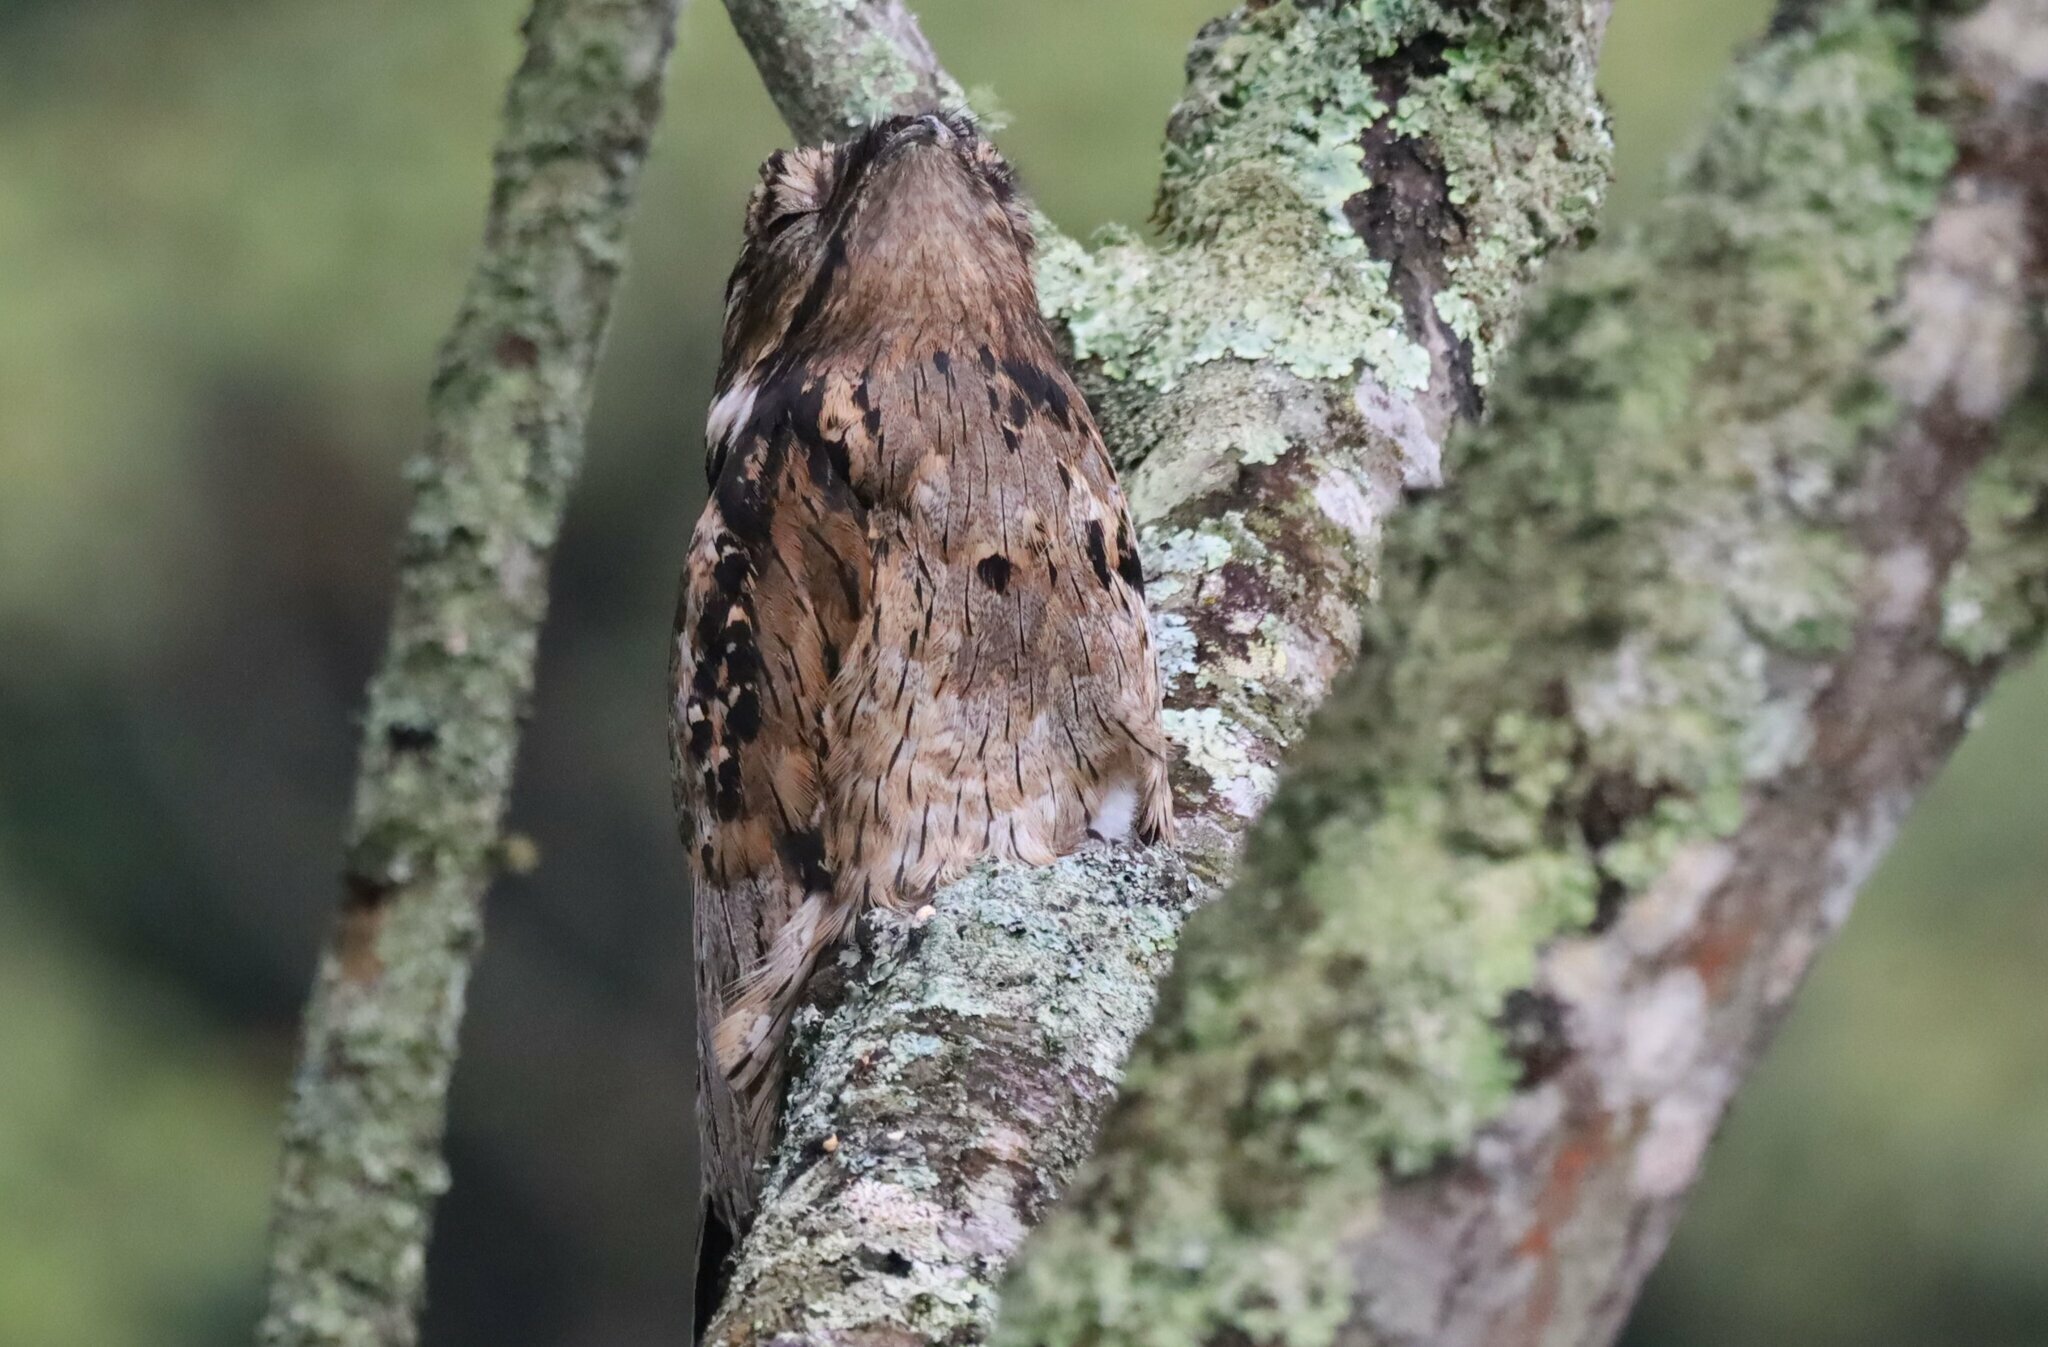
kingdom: Animalia
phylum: Chordata
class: Aves
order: Nyctibiiformes
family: Nyctibiidae
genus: Nyctibius
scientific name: Nyctibius griseus
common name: Common potoo
